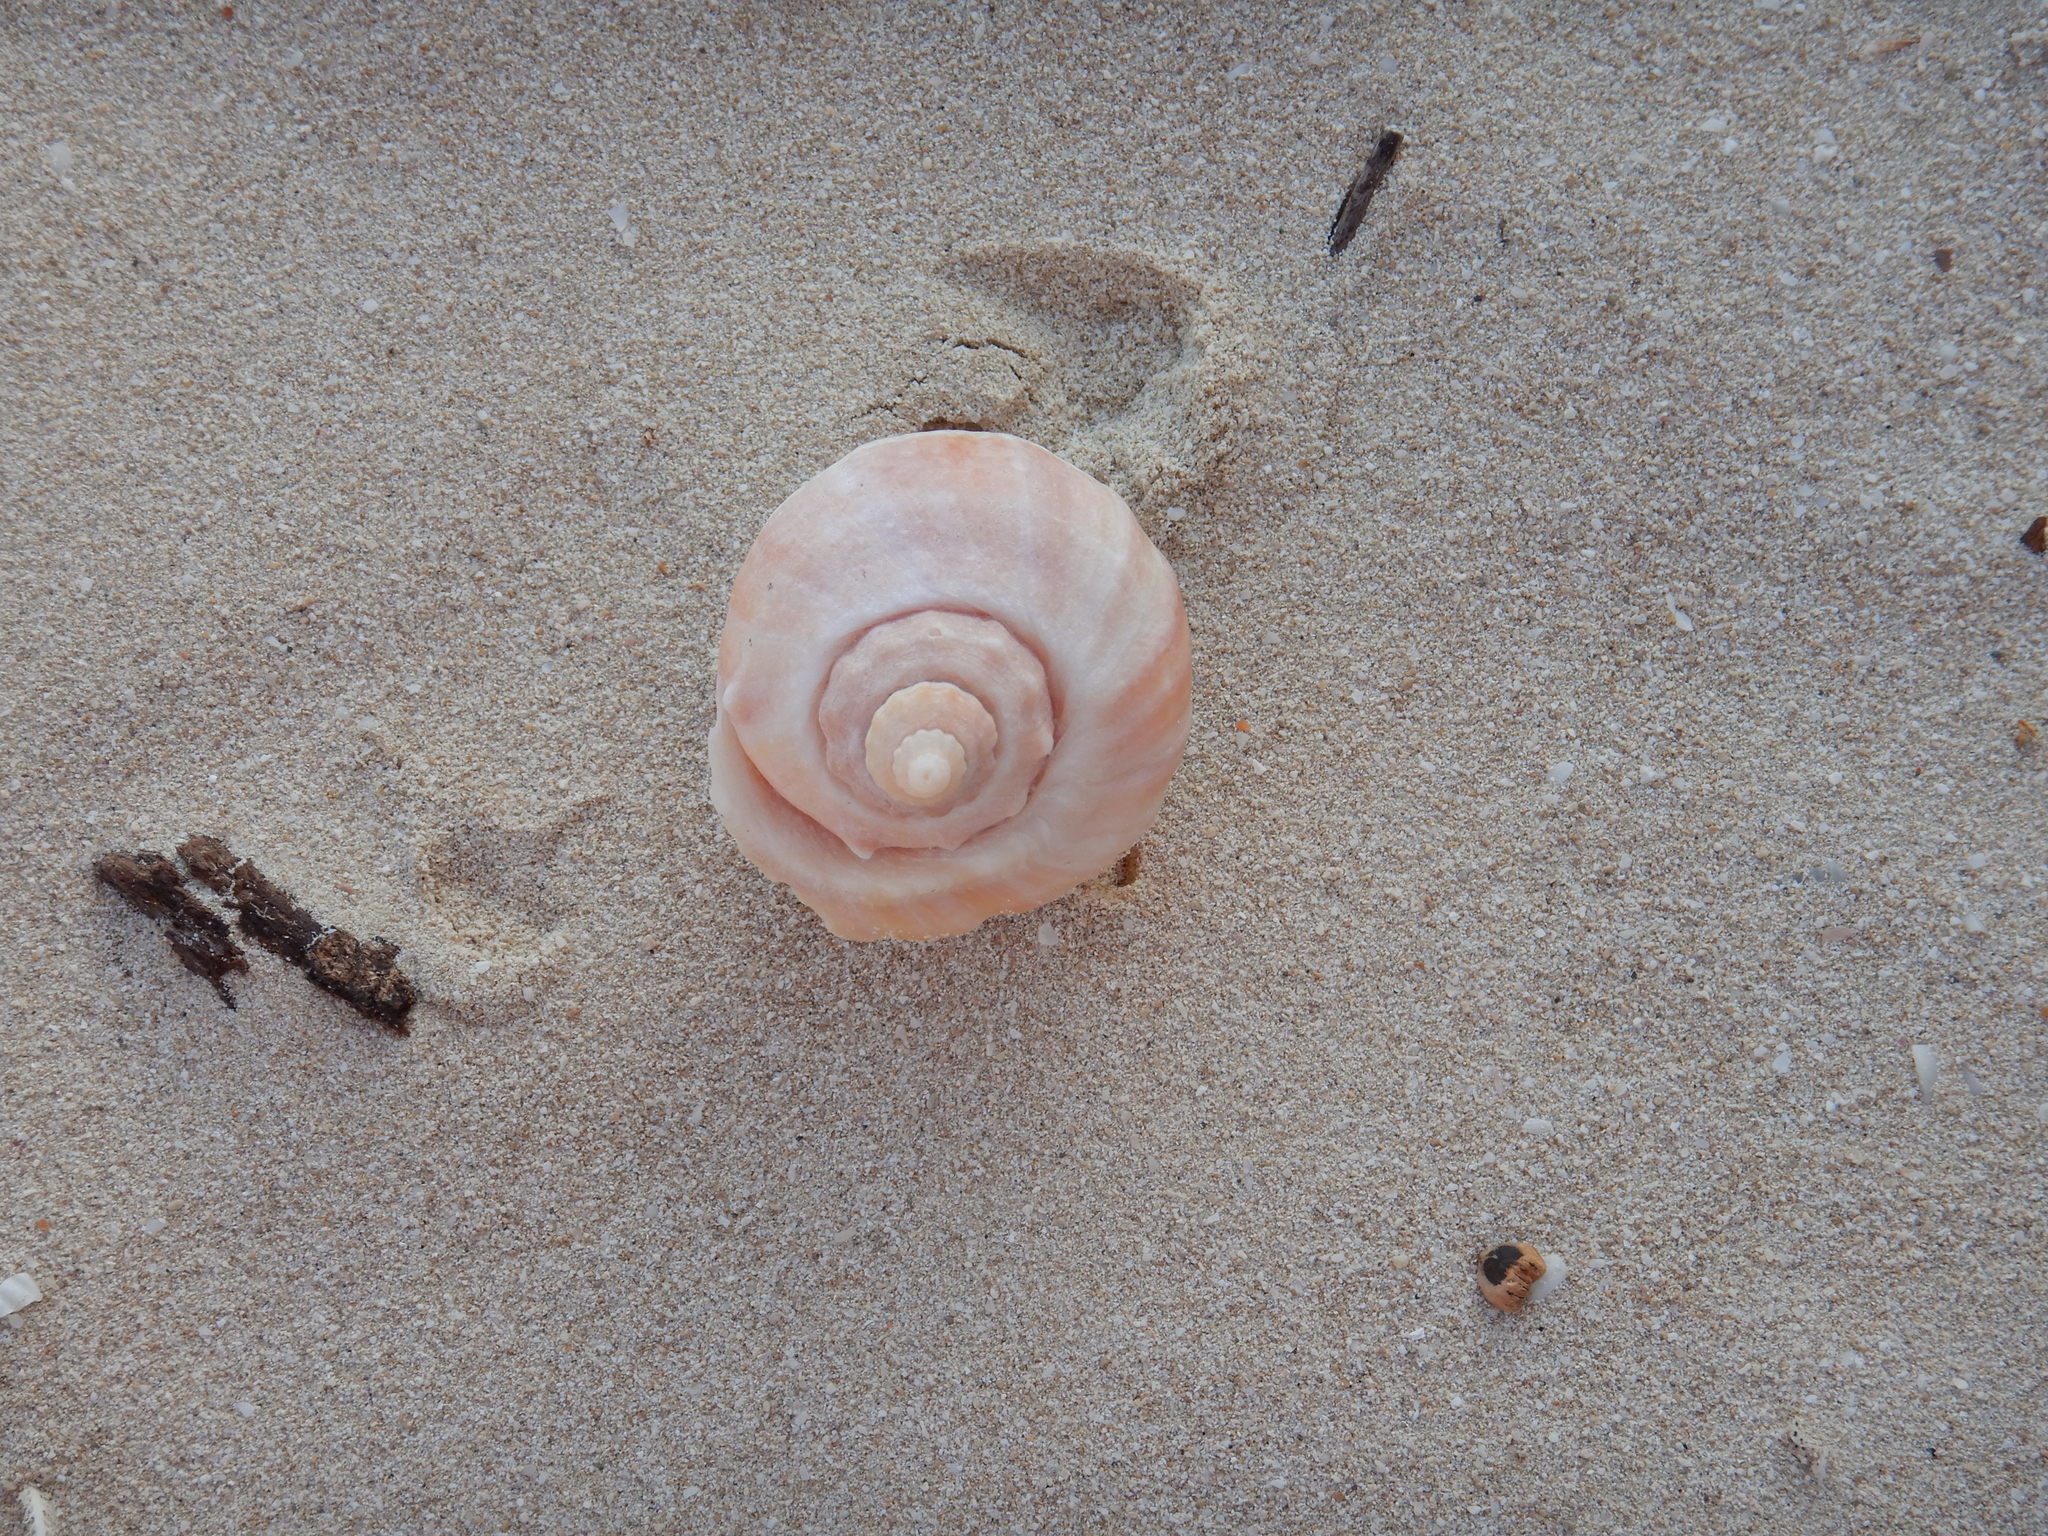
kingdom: Animalia
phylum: Mollusca
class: Gastropoda
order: Neogastropoda
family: Melongenidae
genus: Melongena
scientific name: Melongena melongena
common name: West indian crown conch
